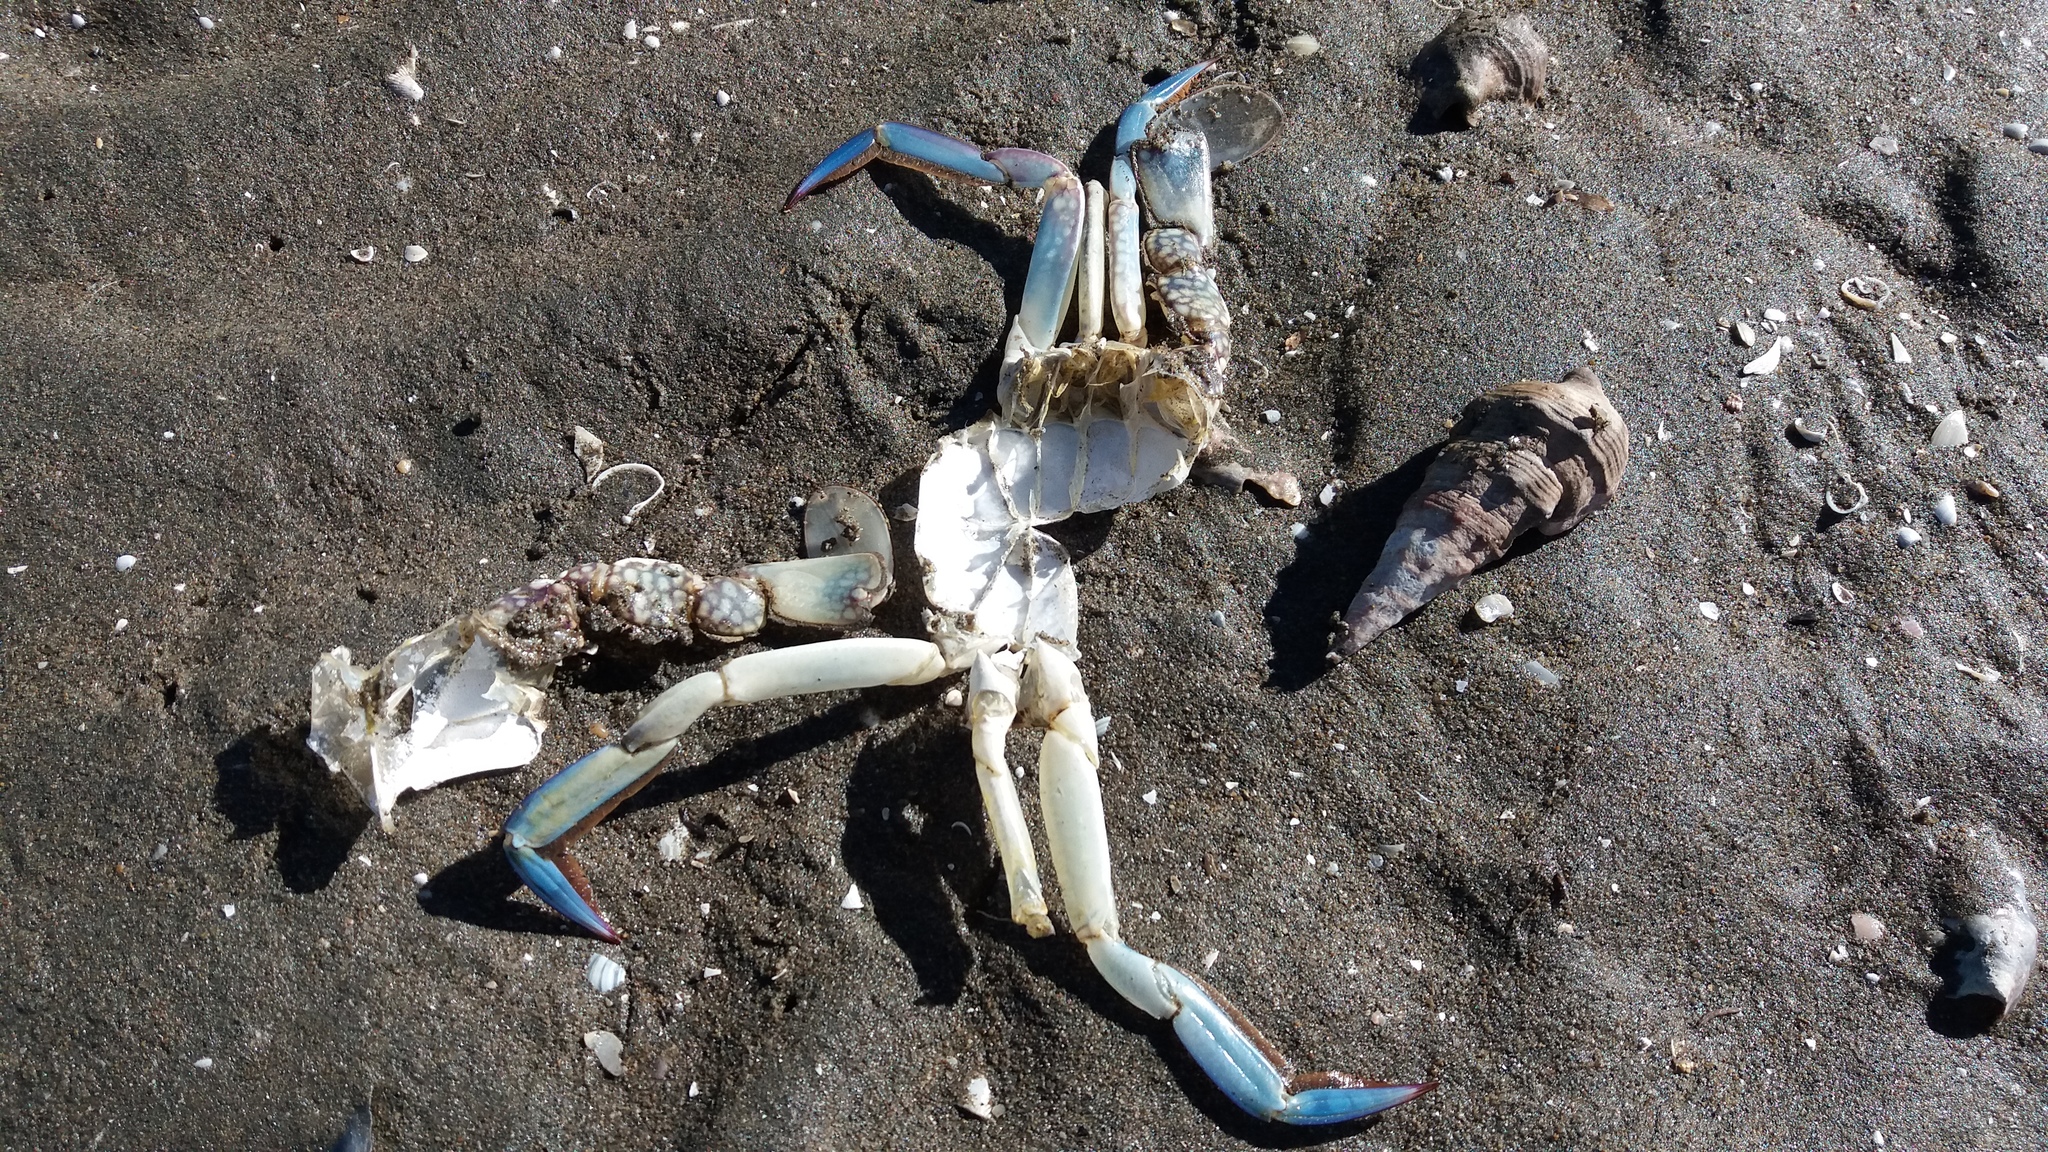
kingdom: Animalia
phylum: Arthropoda
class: Malacostraca
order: Decapoda
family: Portunidae
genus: Portunus
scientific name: Portunus armatus
